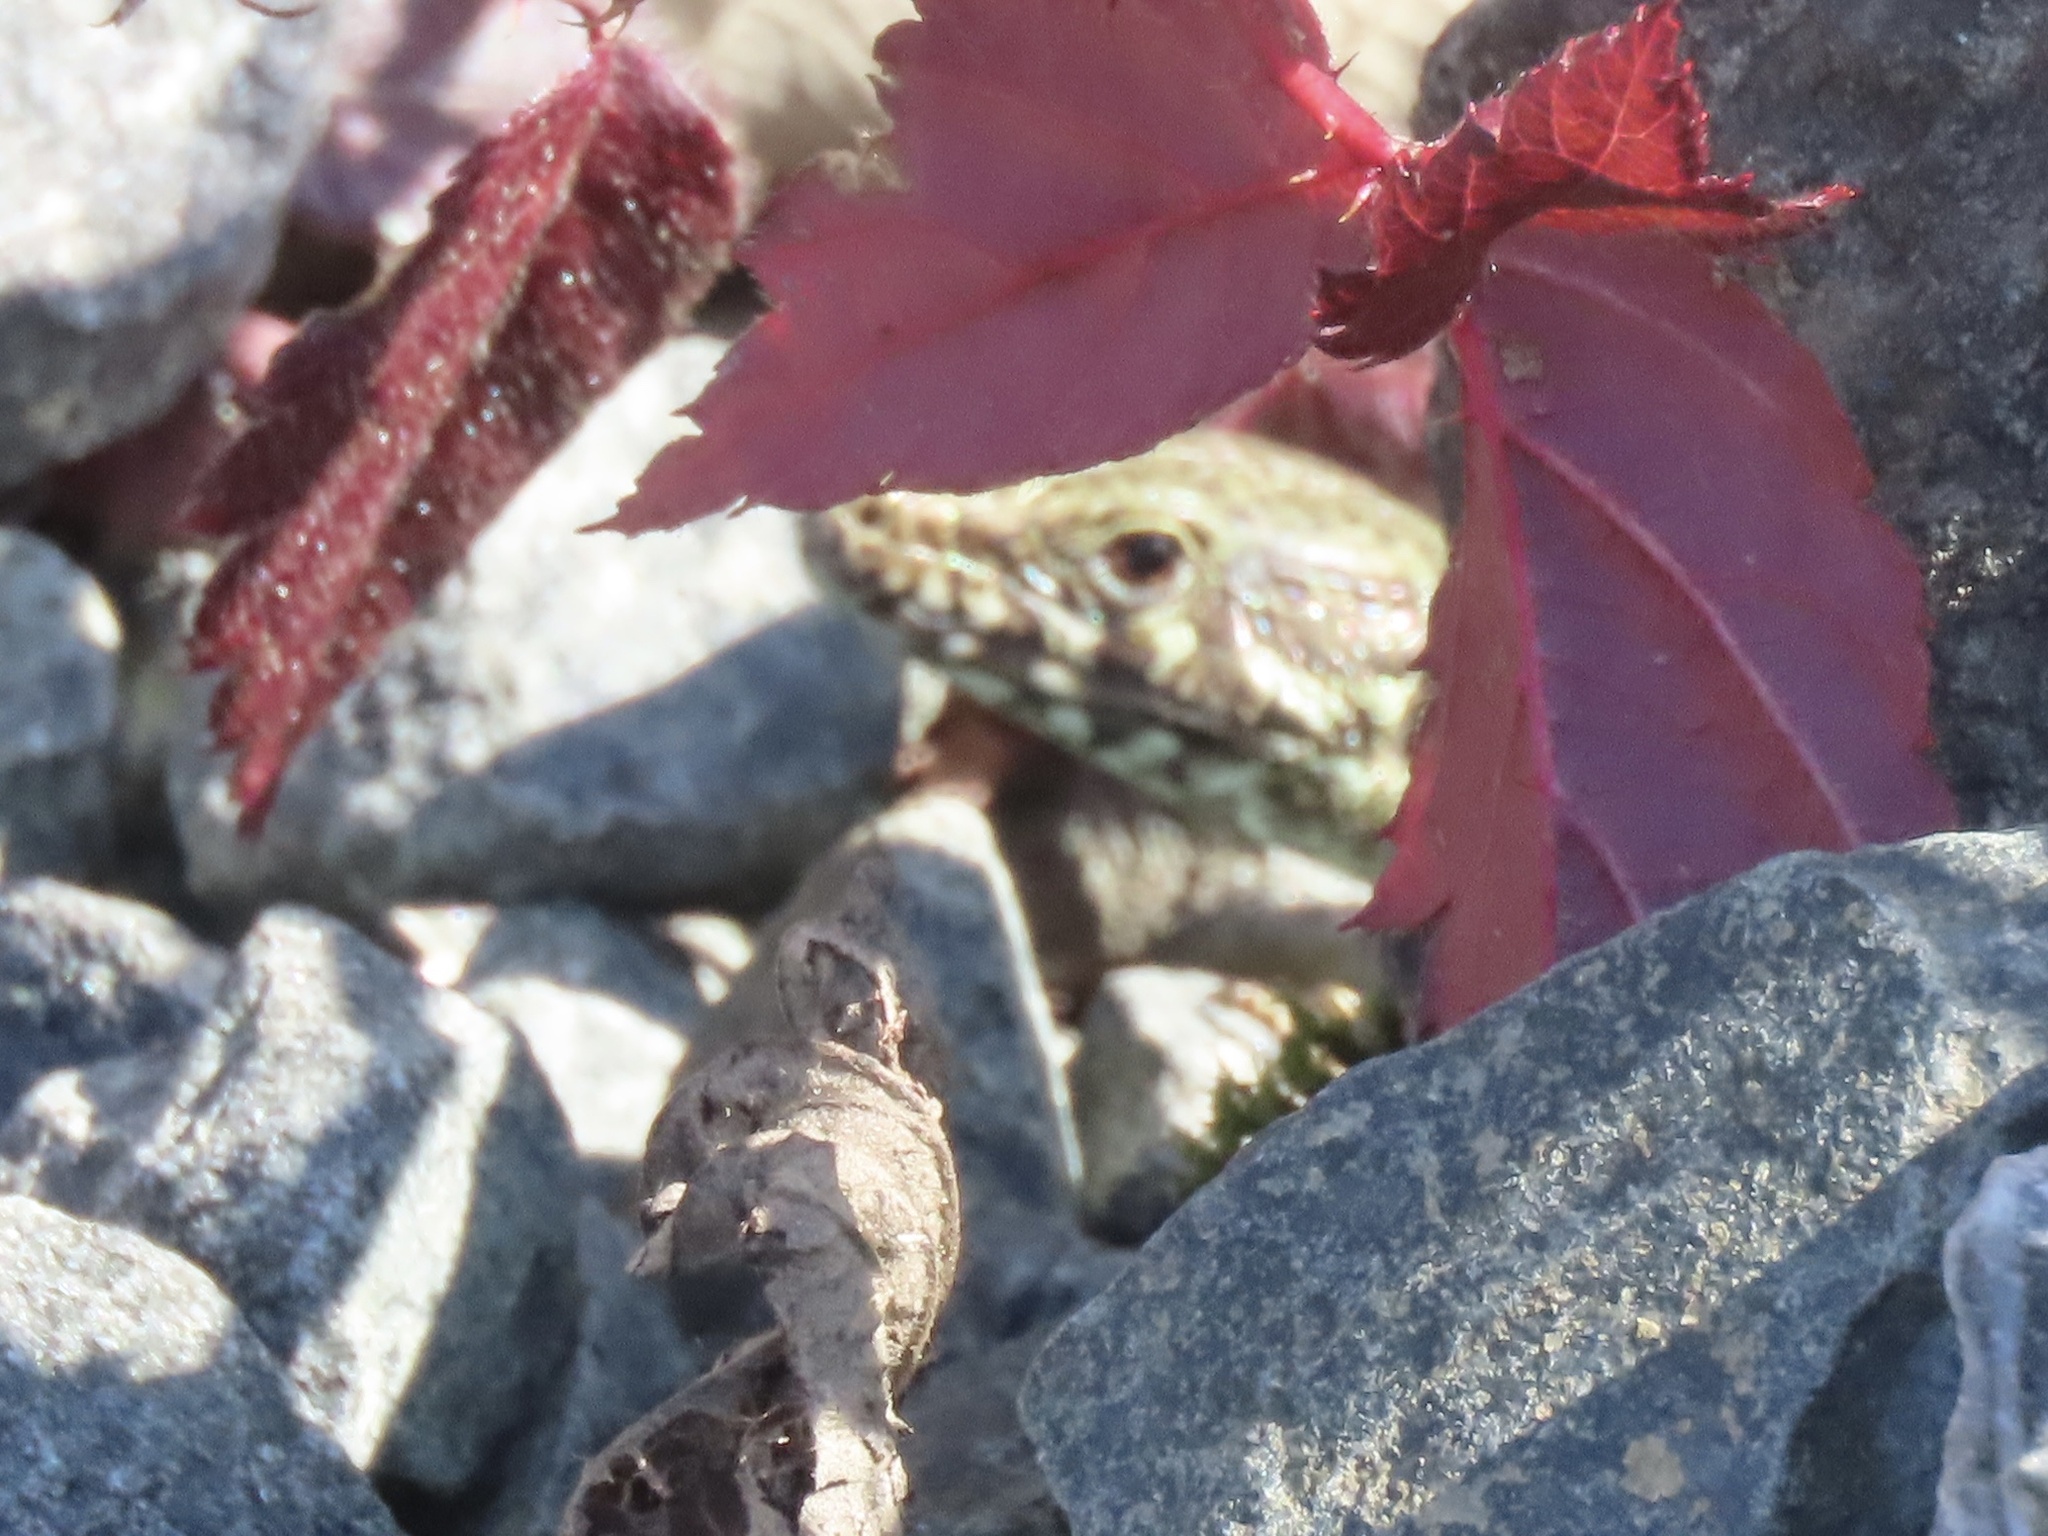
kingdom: Animalia
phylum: Chordata
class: Squamata
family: Lacertidae
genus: Podarcis
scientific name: Podarcis muralis
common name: Common wall lizard
